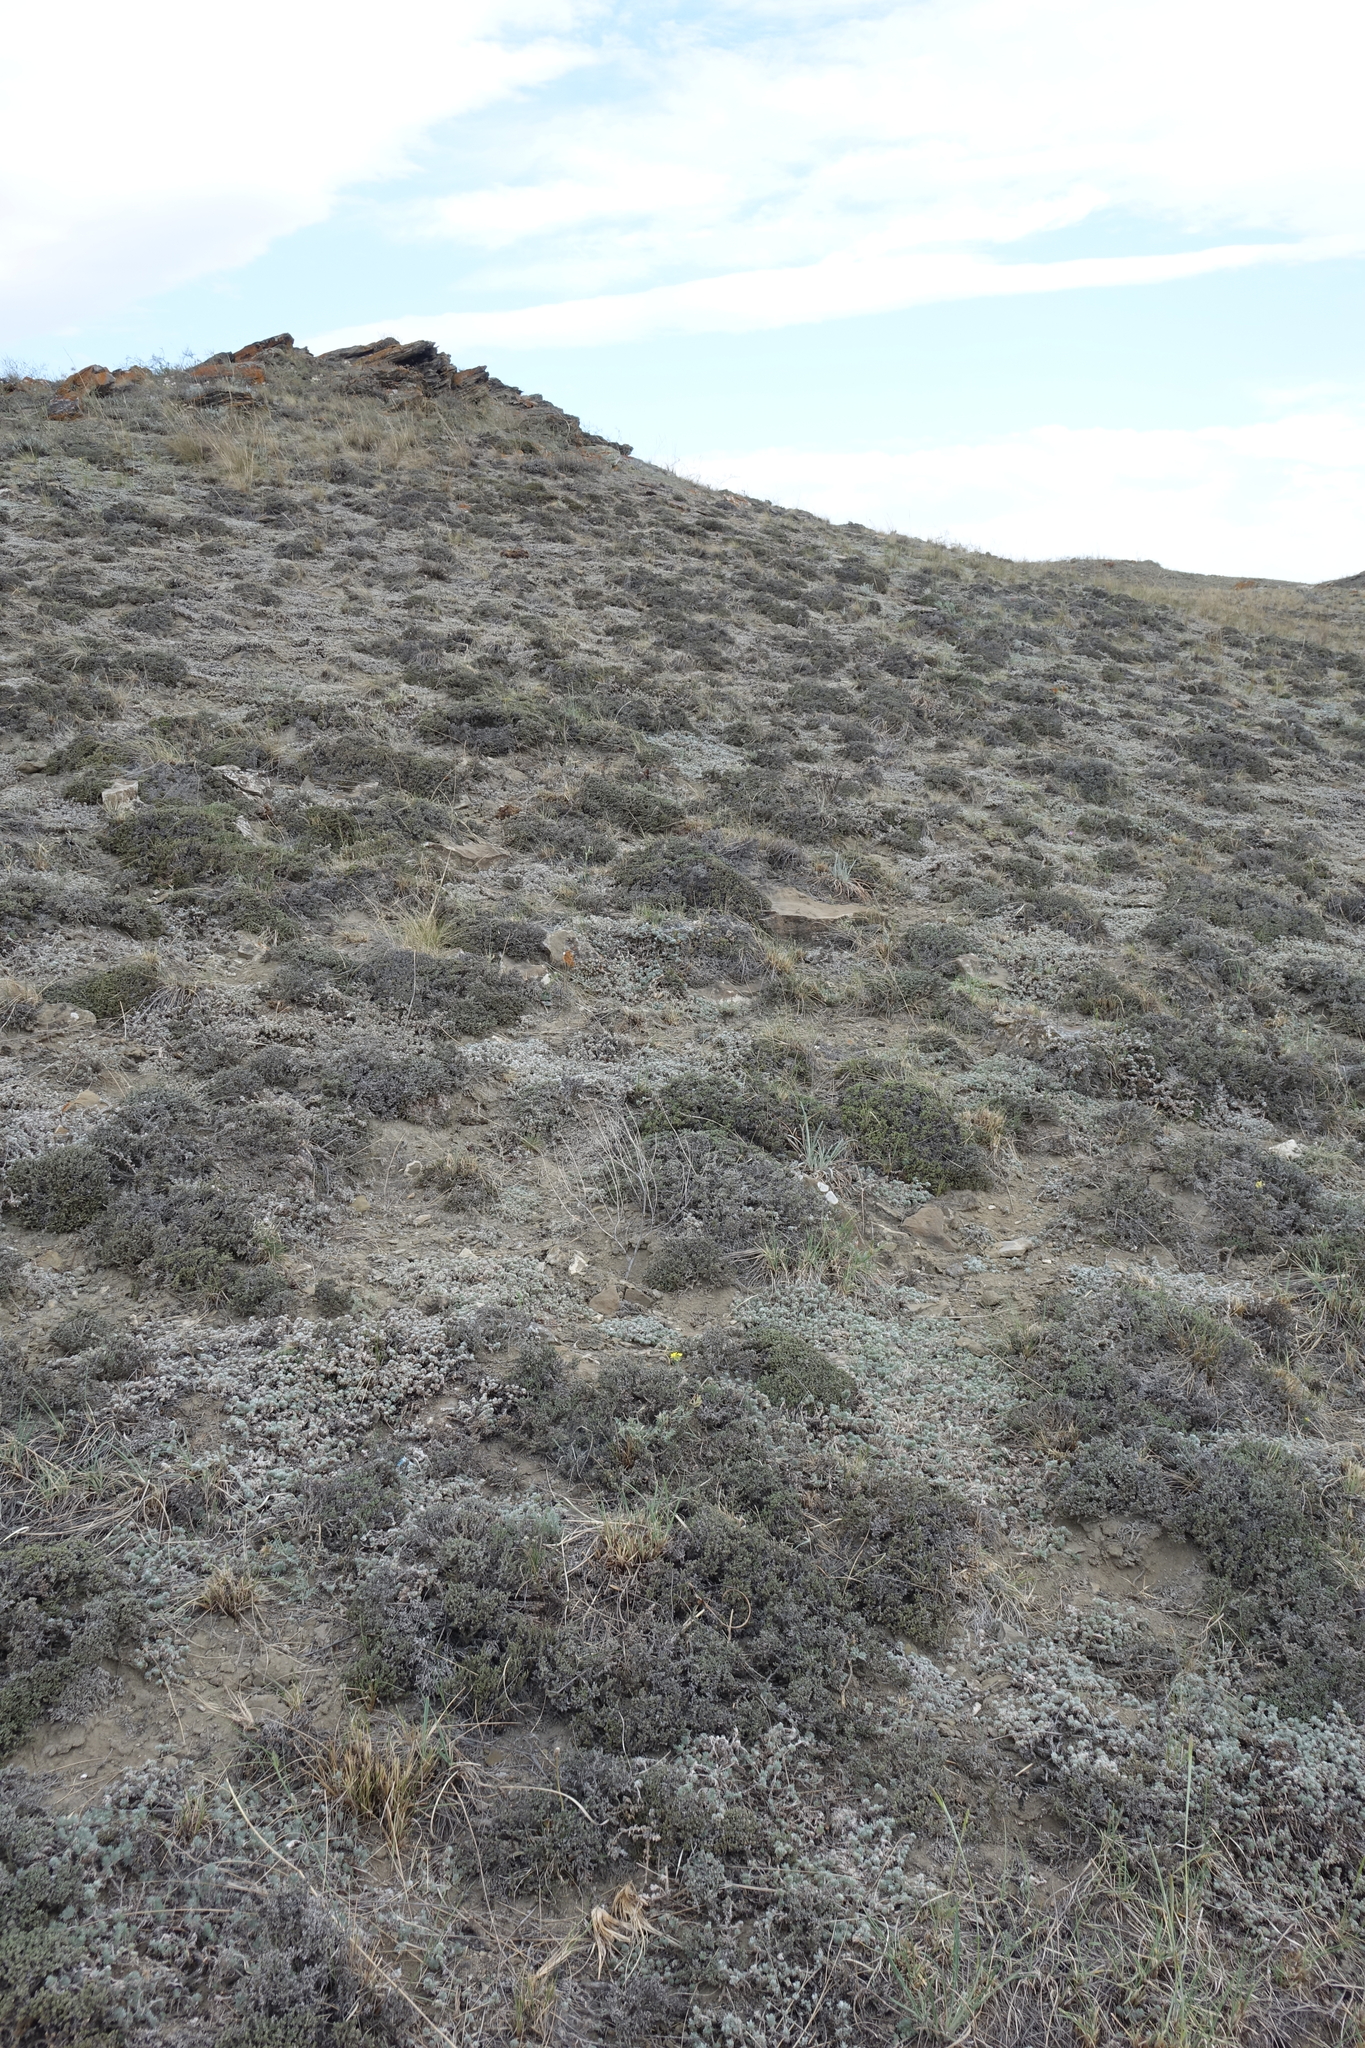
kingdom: Plantae
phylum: Tracheophyta
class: Magnoliopsida
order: Caryophyllales
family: Amaranthaceae
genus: Nanophyton
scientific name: Nanophyton grubovii
